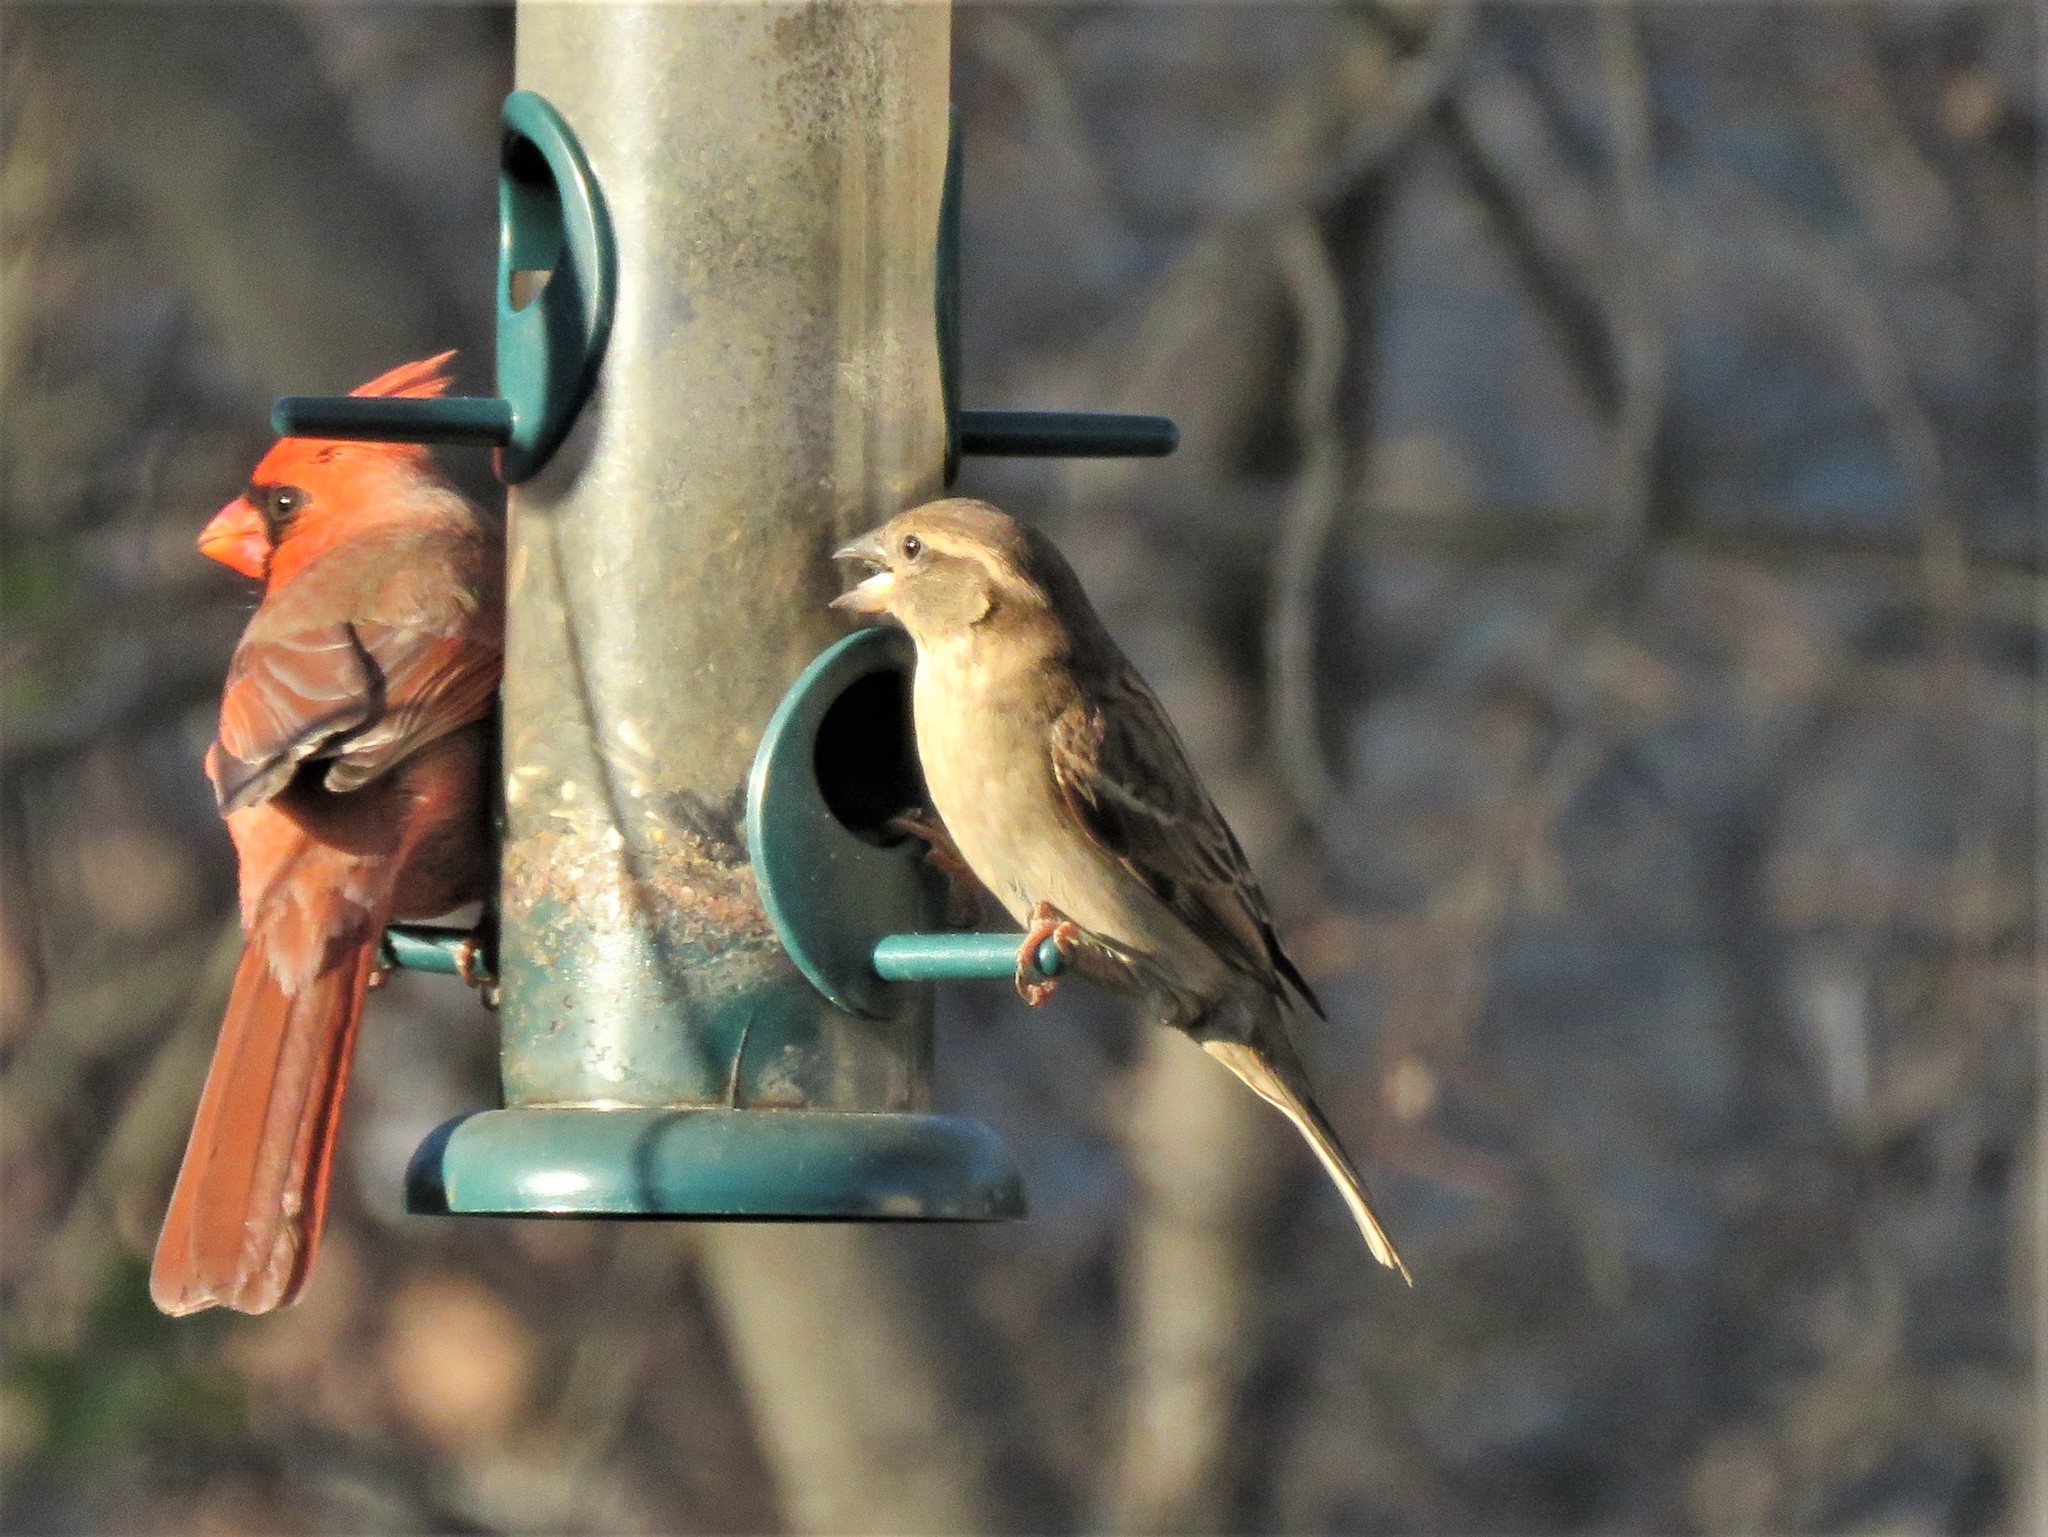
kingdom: Animalia
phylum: Chordata
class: Aves
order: Passeriformes
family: Passeridae
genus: Passer
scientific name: Passer domesticus
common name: House sparrow
